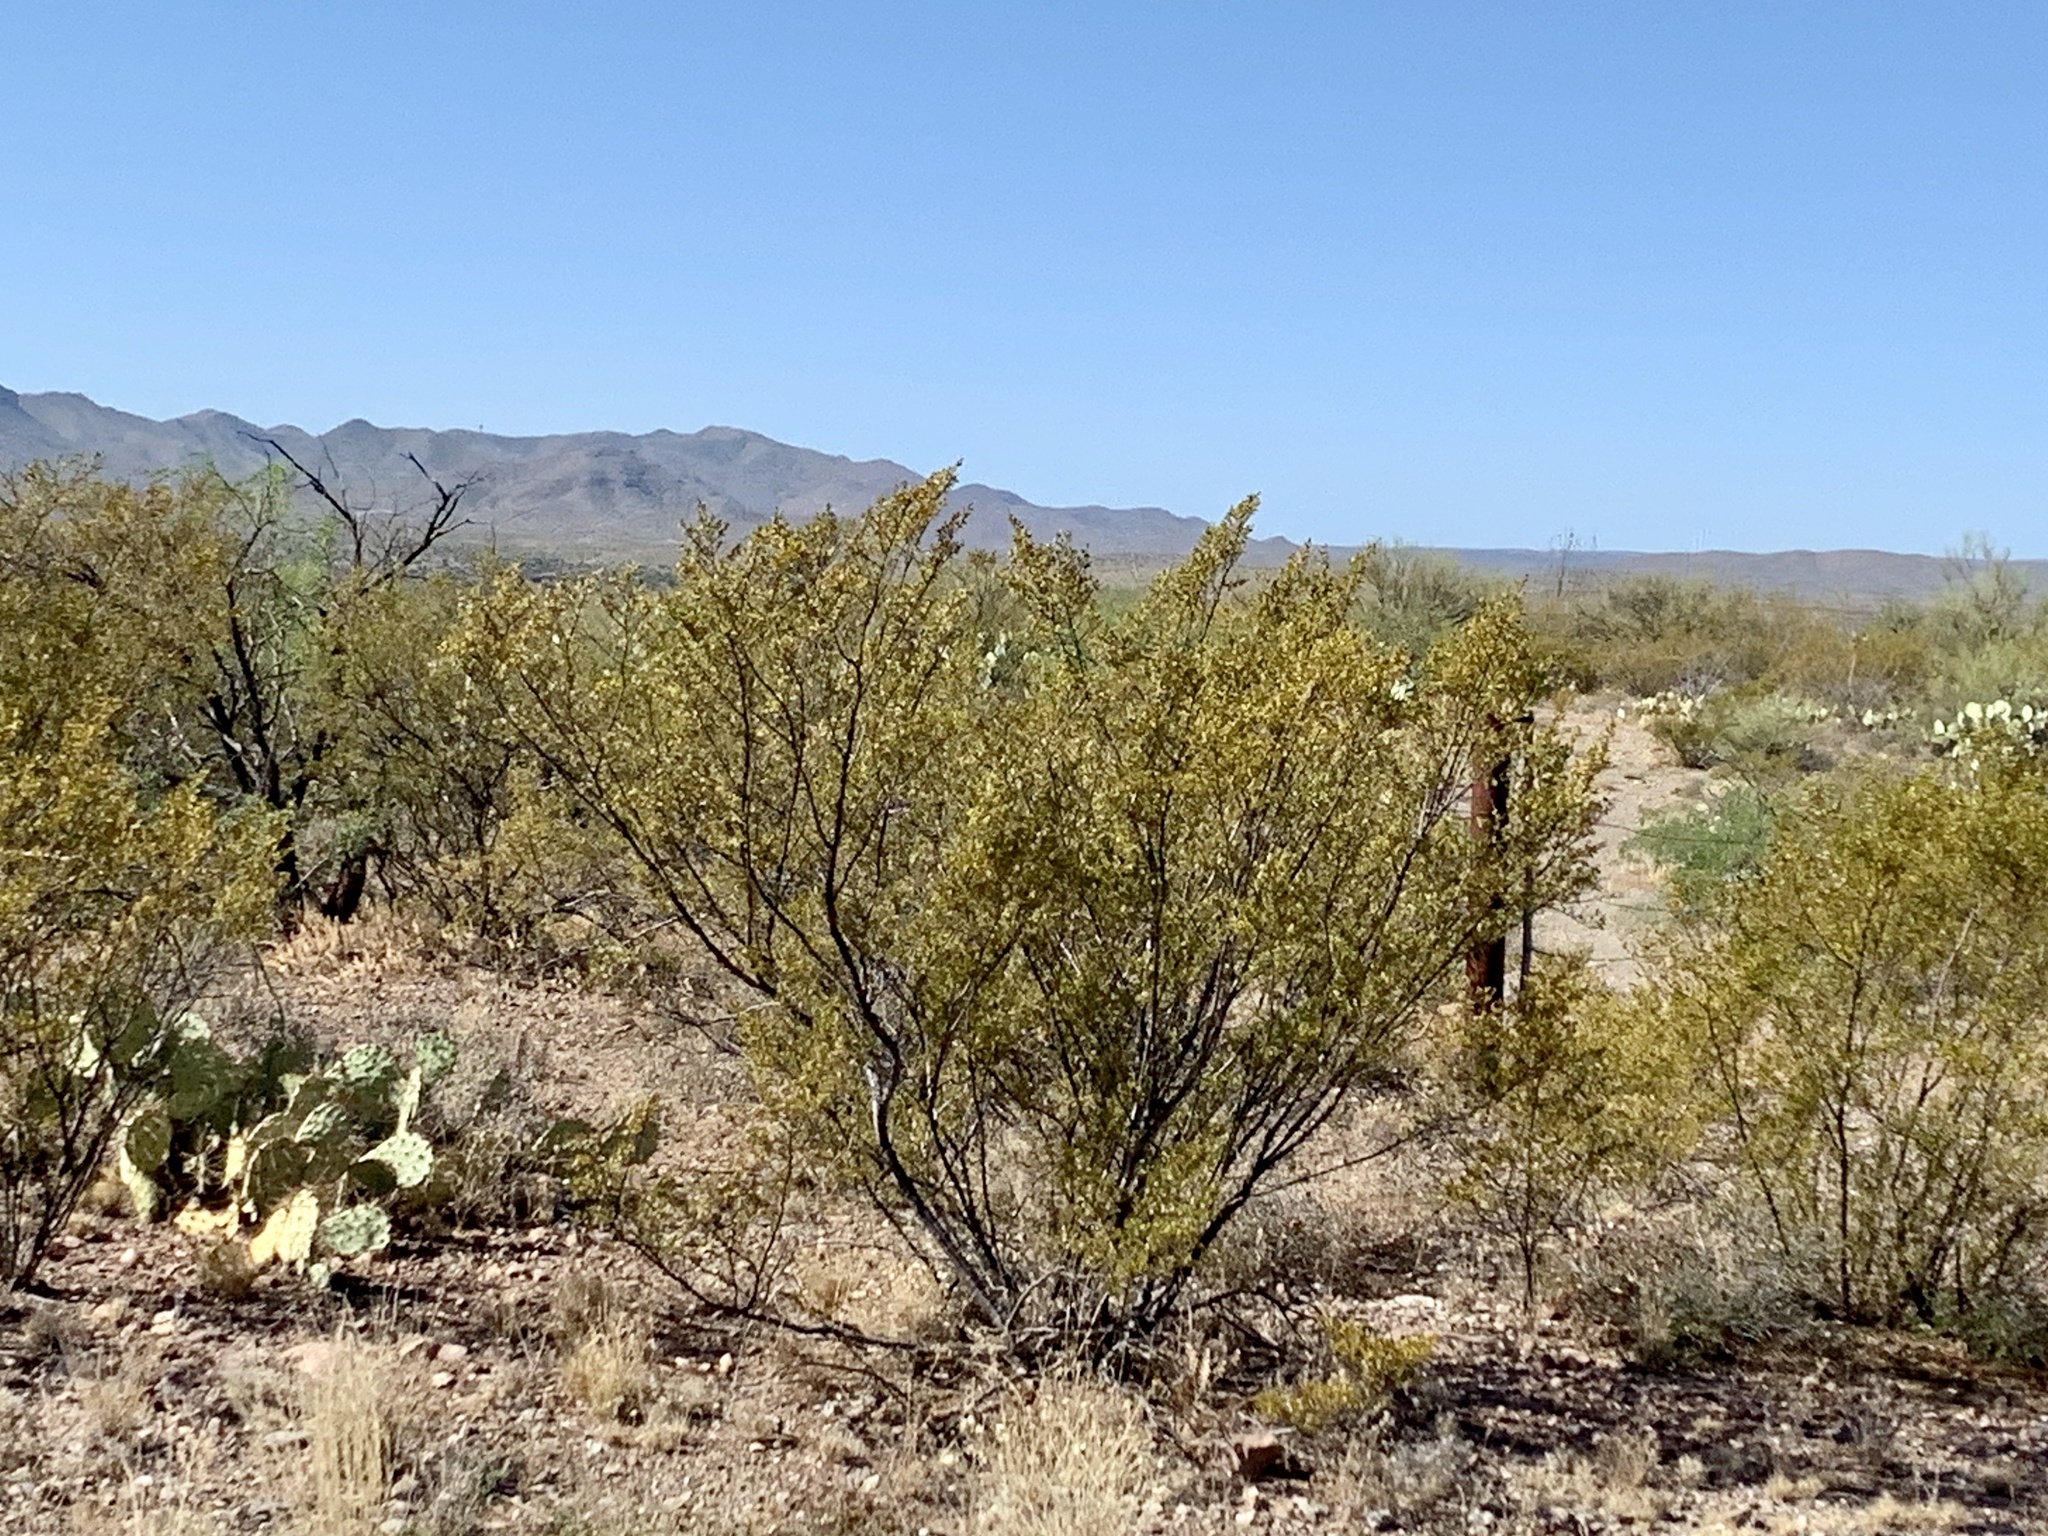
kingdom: Plantae
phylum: Tracheophyta
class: Magnoliopsida
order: Zygophyllales
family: Zygophyllaceae
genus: Larrea
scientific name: Larrea tridentata
